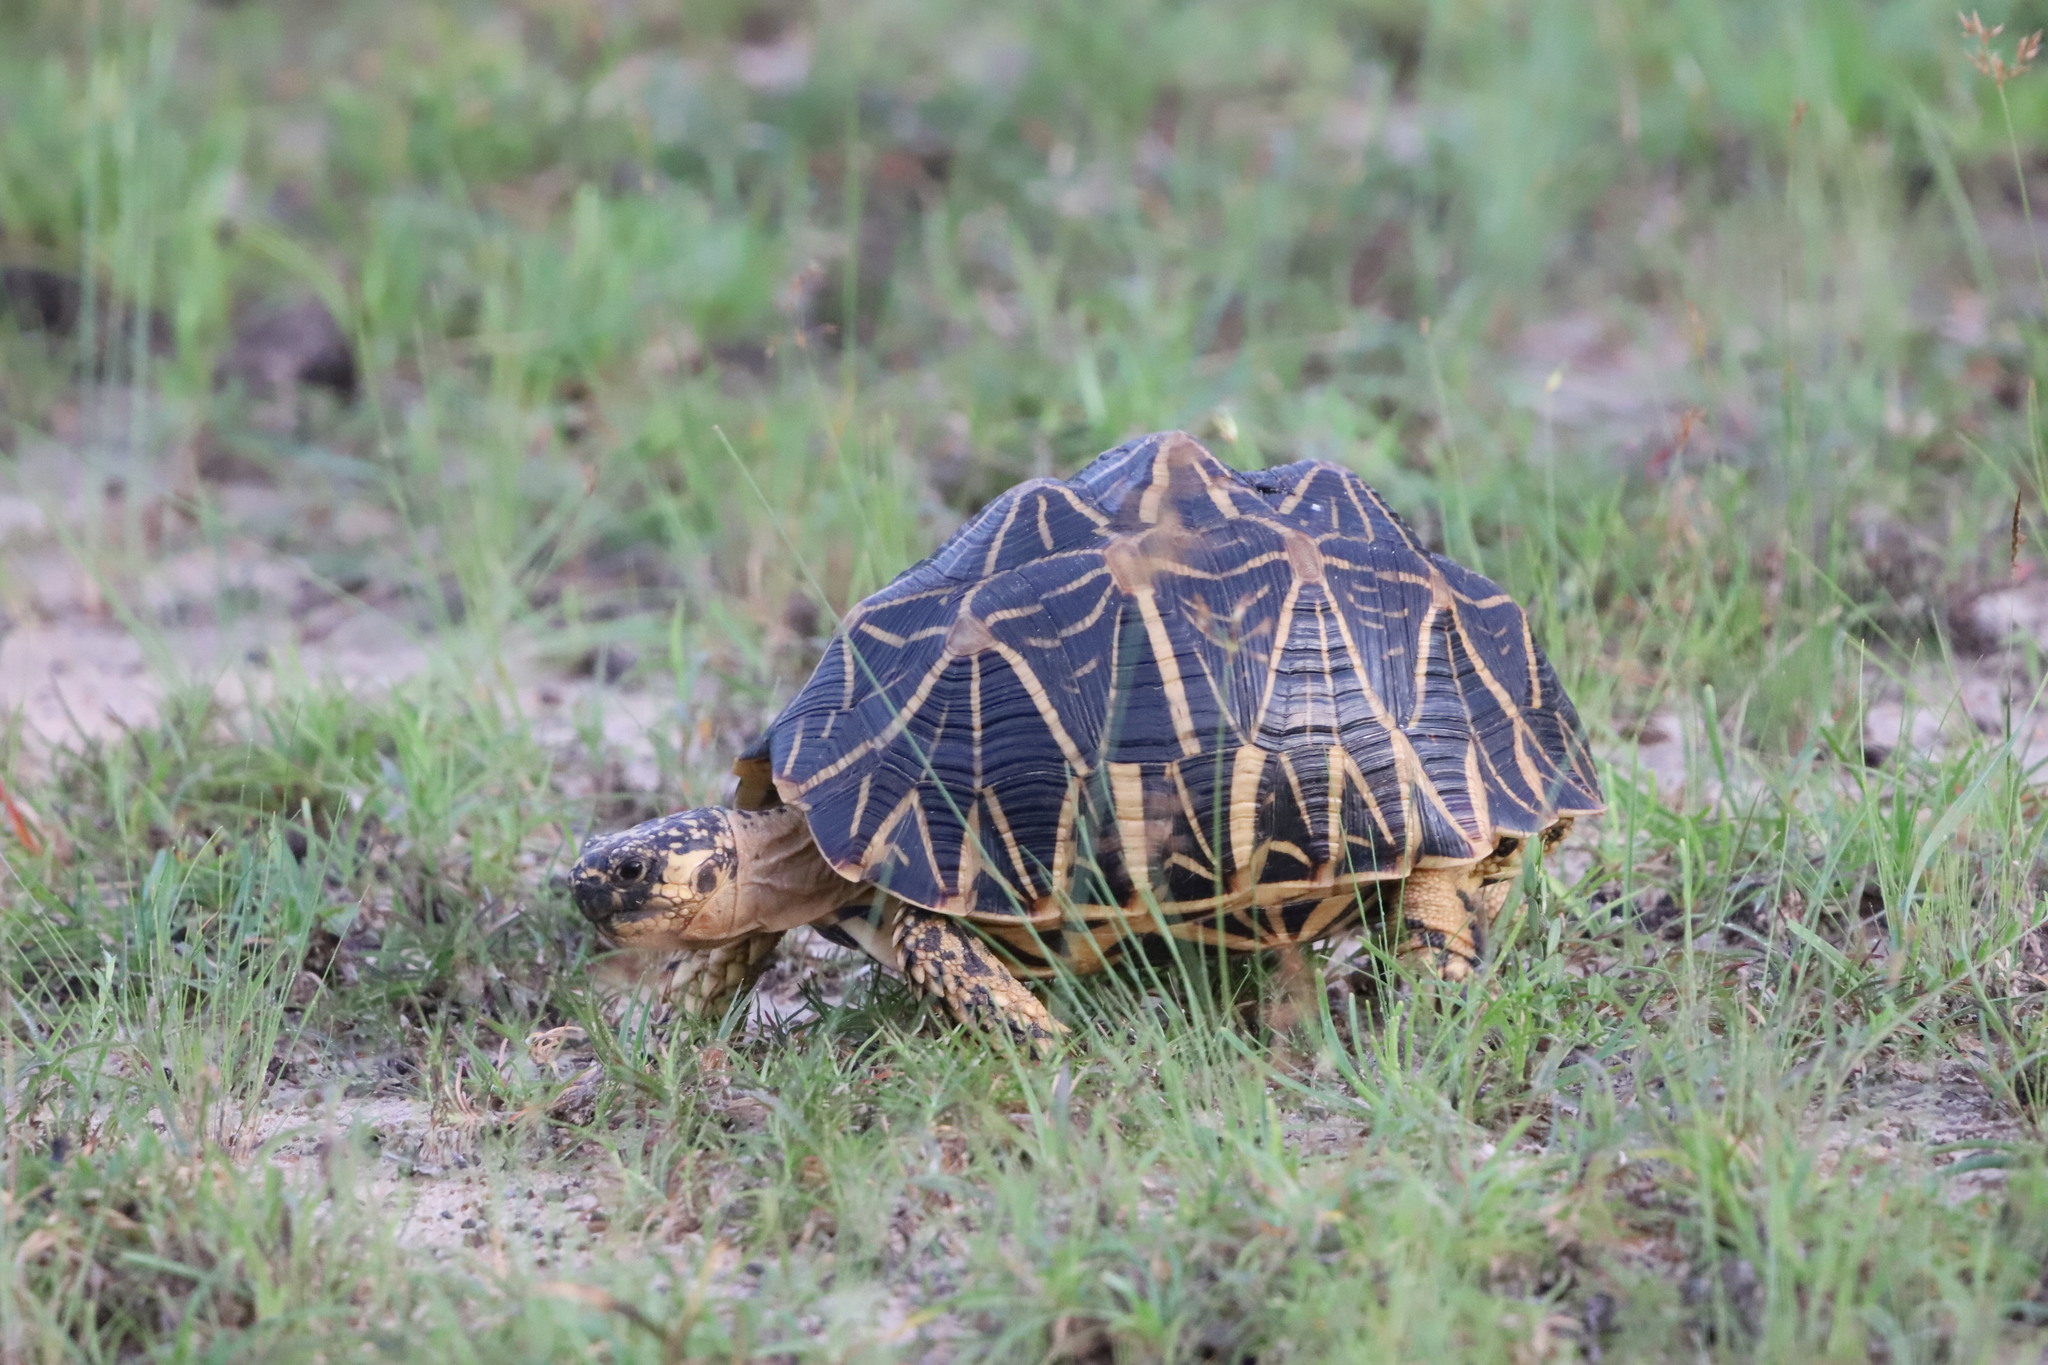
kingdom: Animalia
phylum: Chordata
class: Testudines
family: Testudinidae
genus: Geochelone
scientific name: Geochelone elegans
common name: Indian star tortoise
